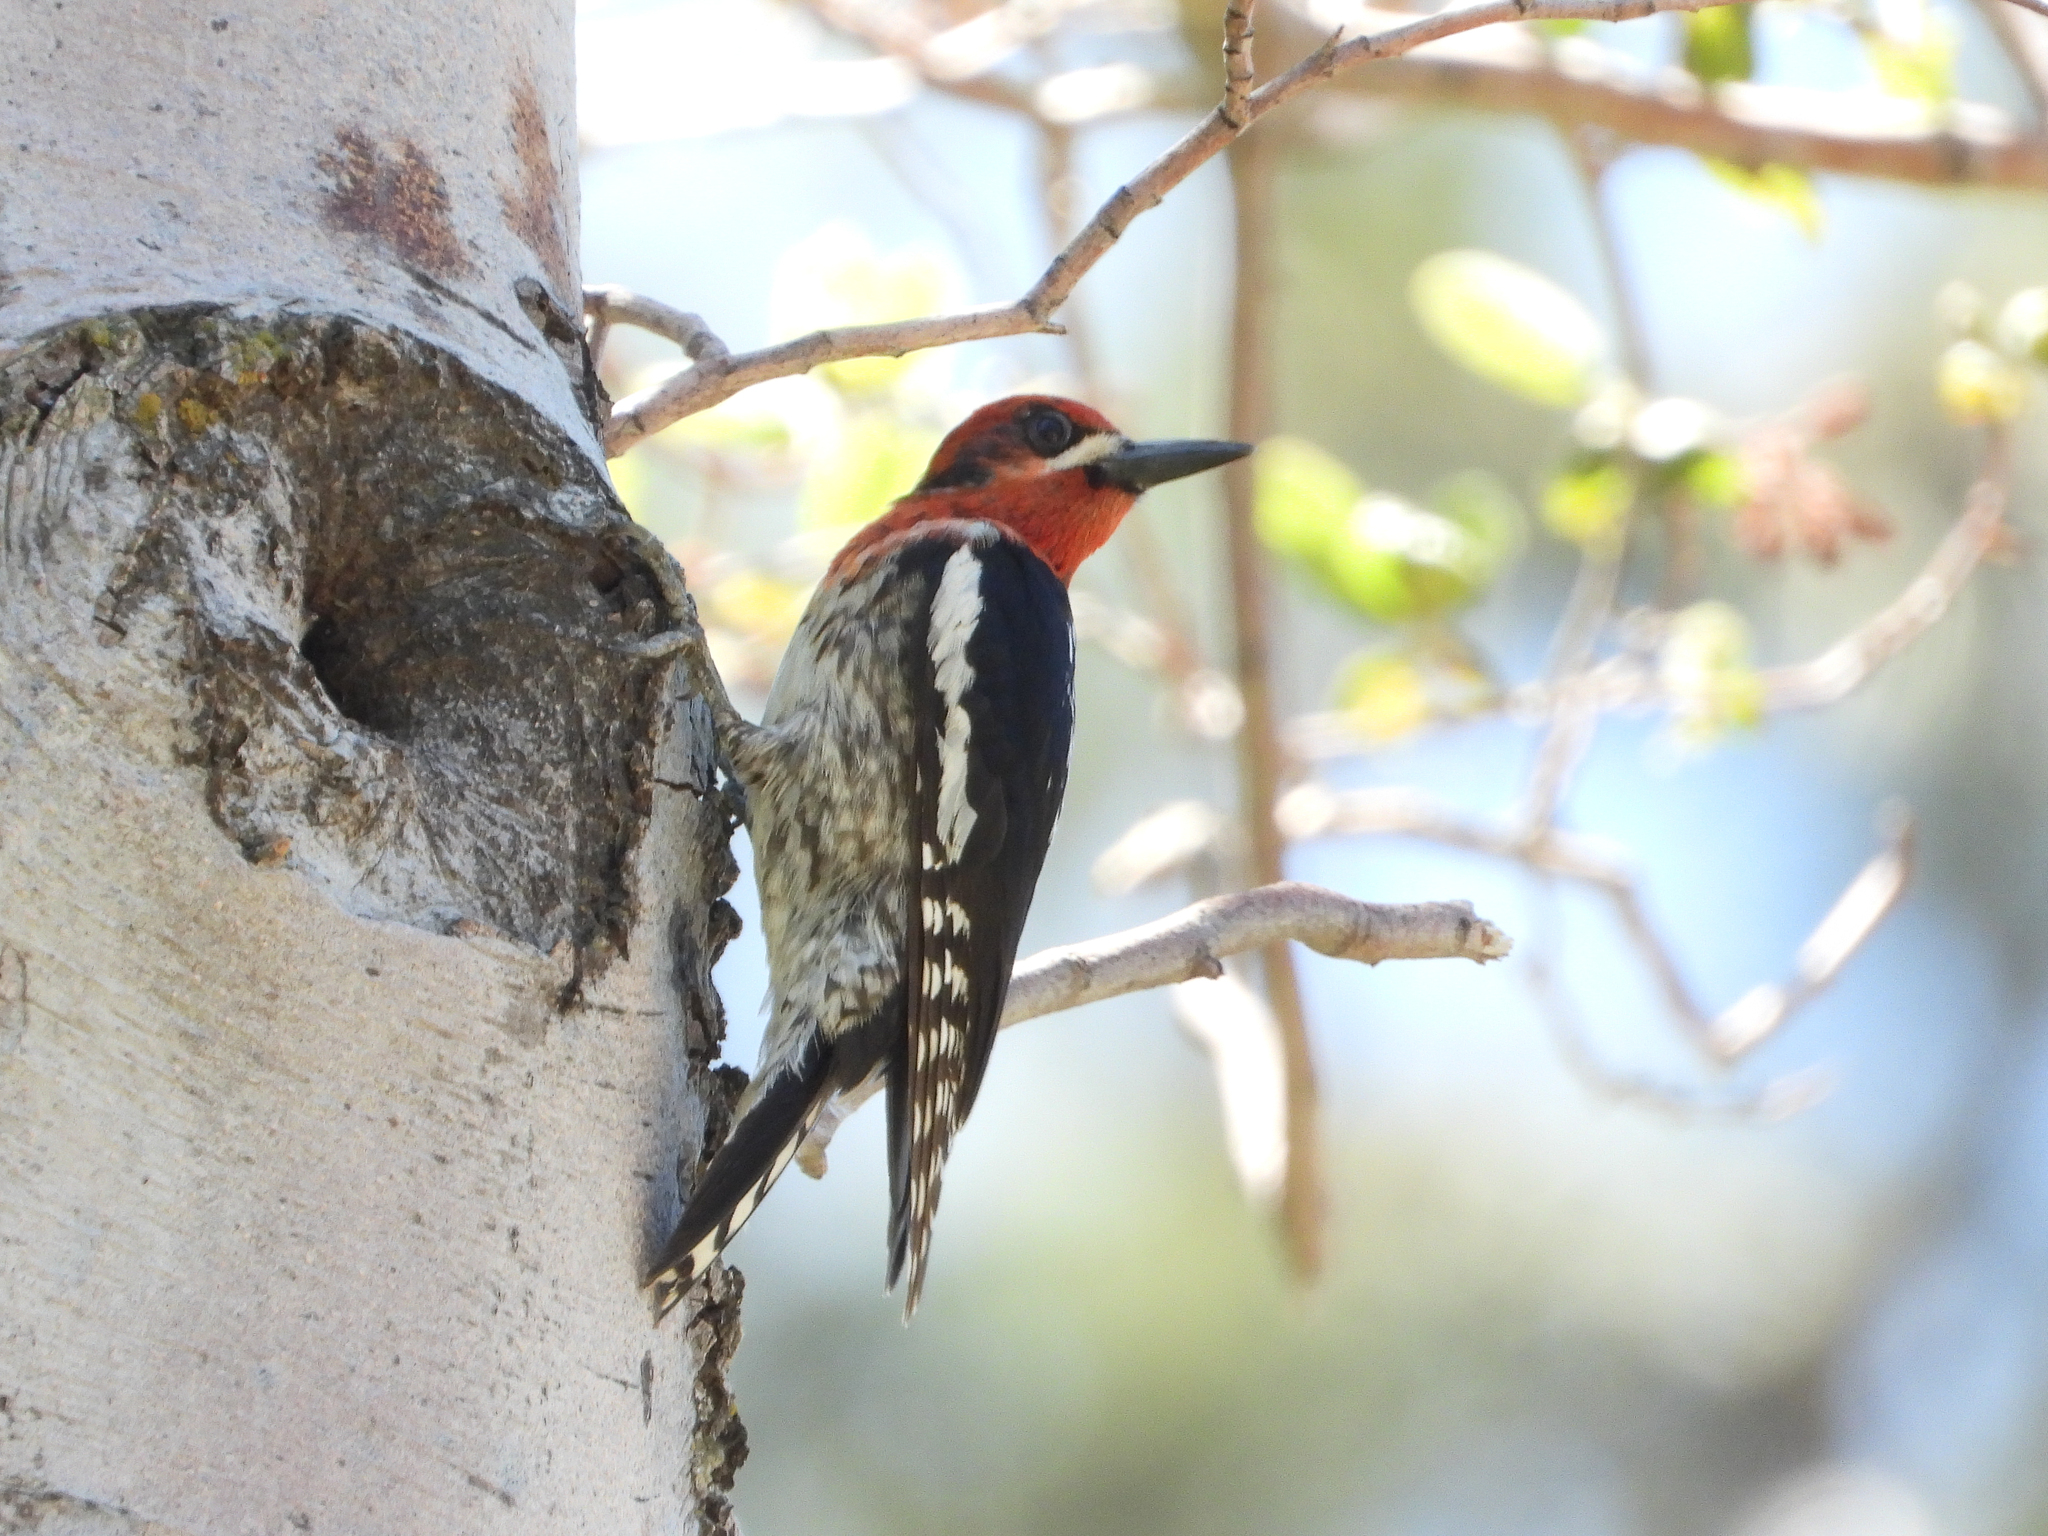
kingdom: Animalia
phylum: Chordata
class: Aves
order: Piciformes
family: Picidae
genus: Sphyrapicus
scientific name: Sphyrapicus ruber
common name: Red-breasted sapsucker
